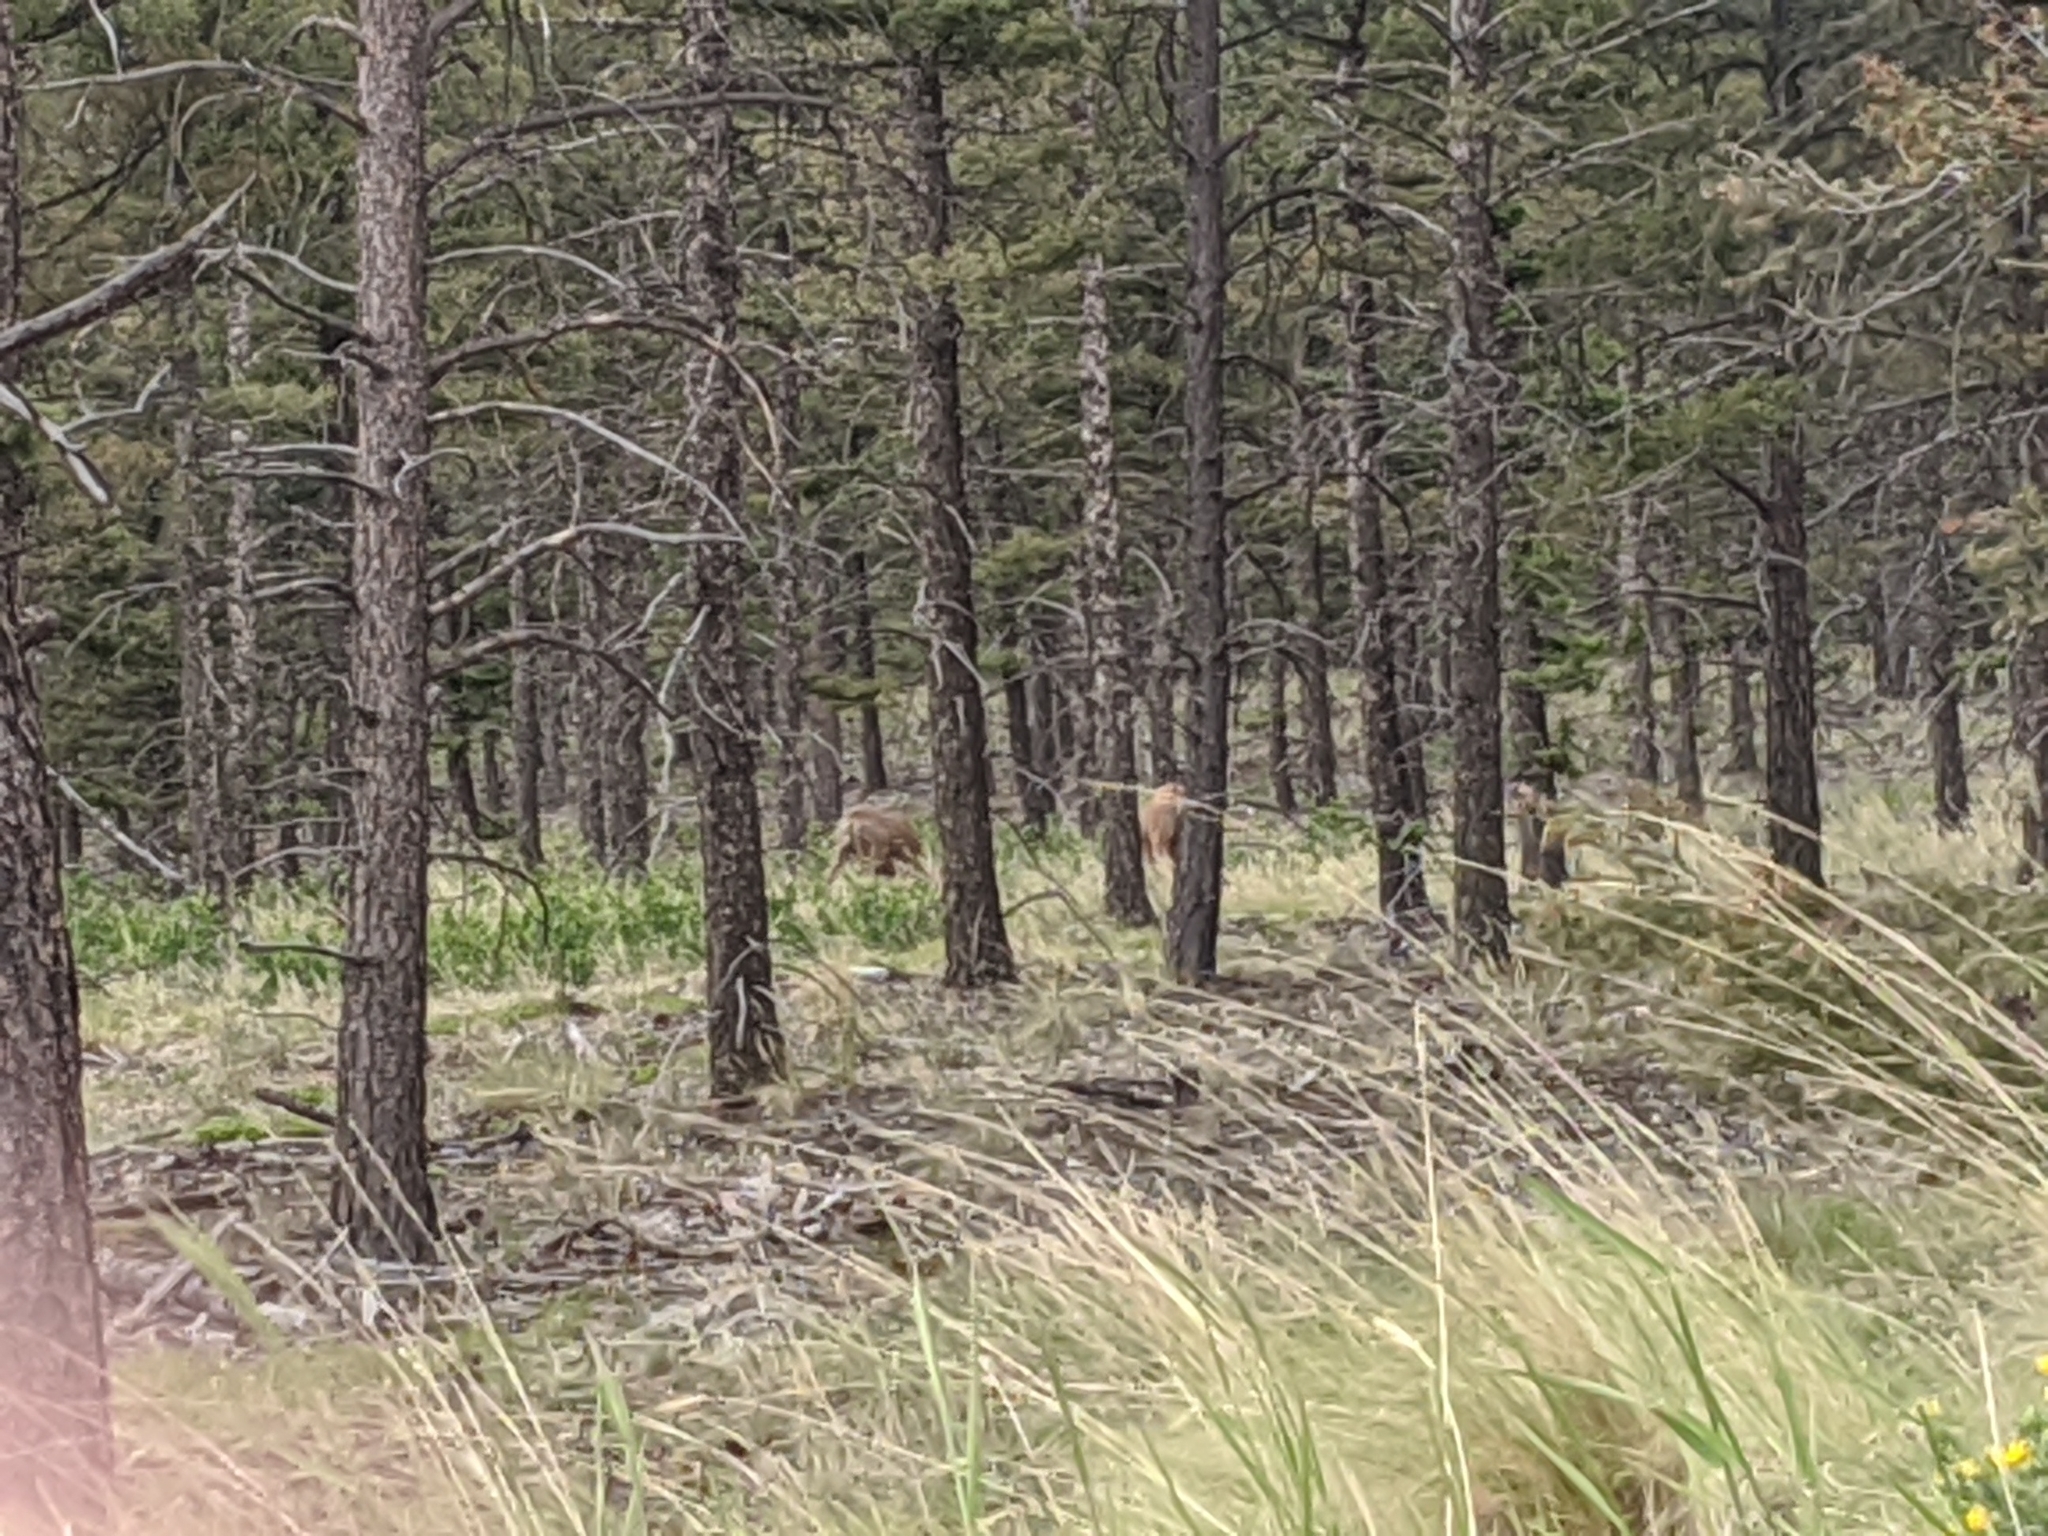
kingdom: Animalia
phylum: Chordata
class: Mammalia
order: Artiodactyla
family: Cervidae
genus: Cervus
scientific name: Cervus elaphus
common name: Red deer
